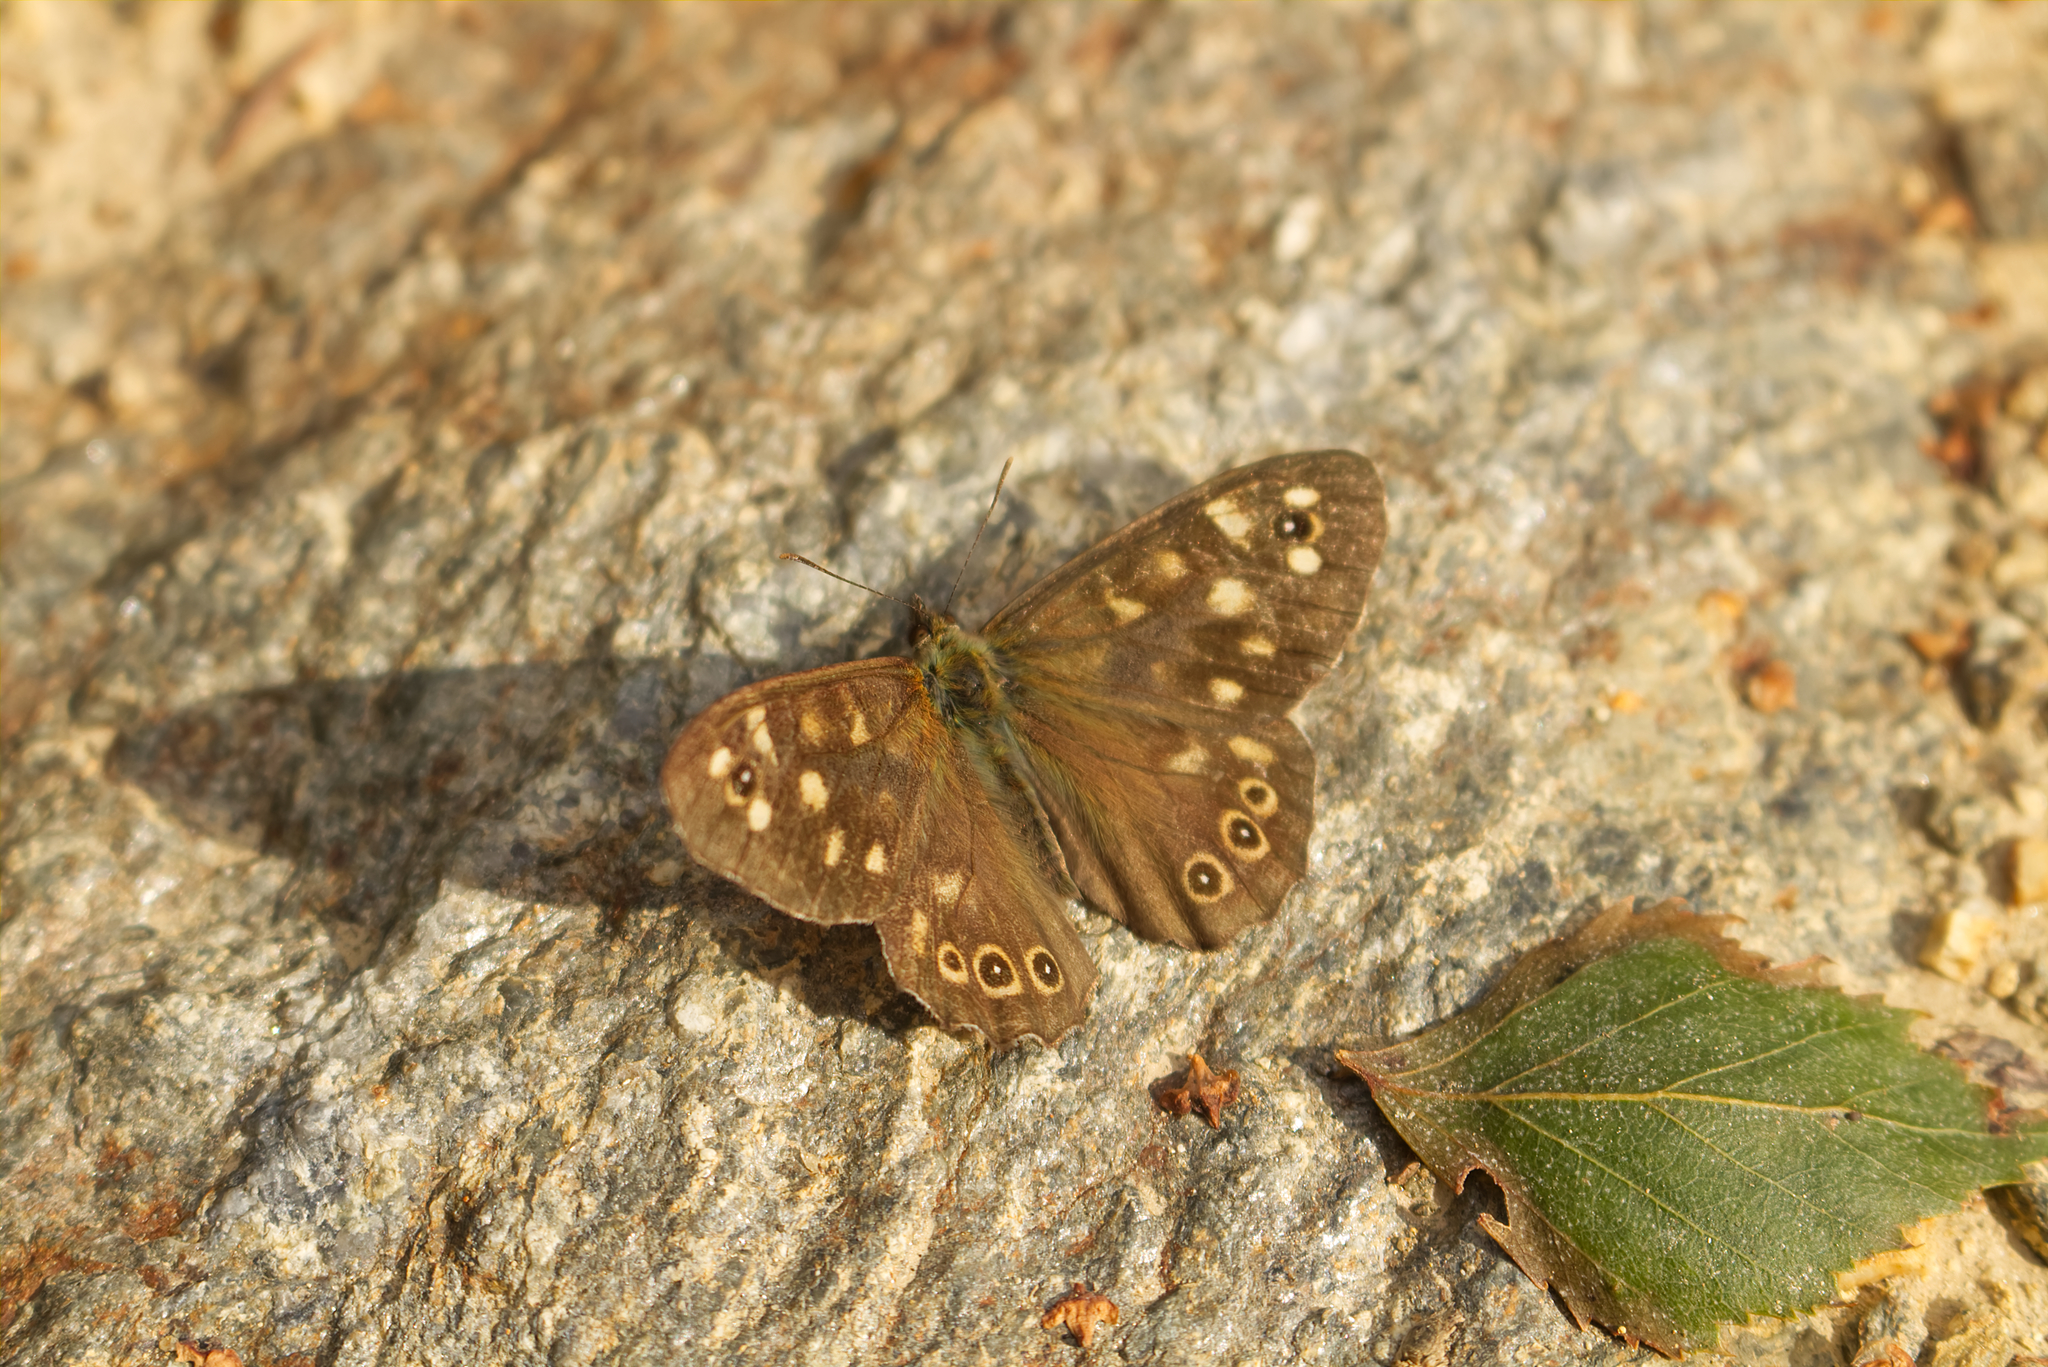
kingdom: Animalia
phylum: Arthropoda
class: Insecta
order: Lepidoptera
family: Nymphalidae
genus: Pararge
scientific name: Pararge aegeria
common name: Speckled wood
